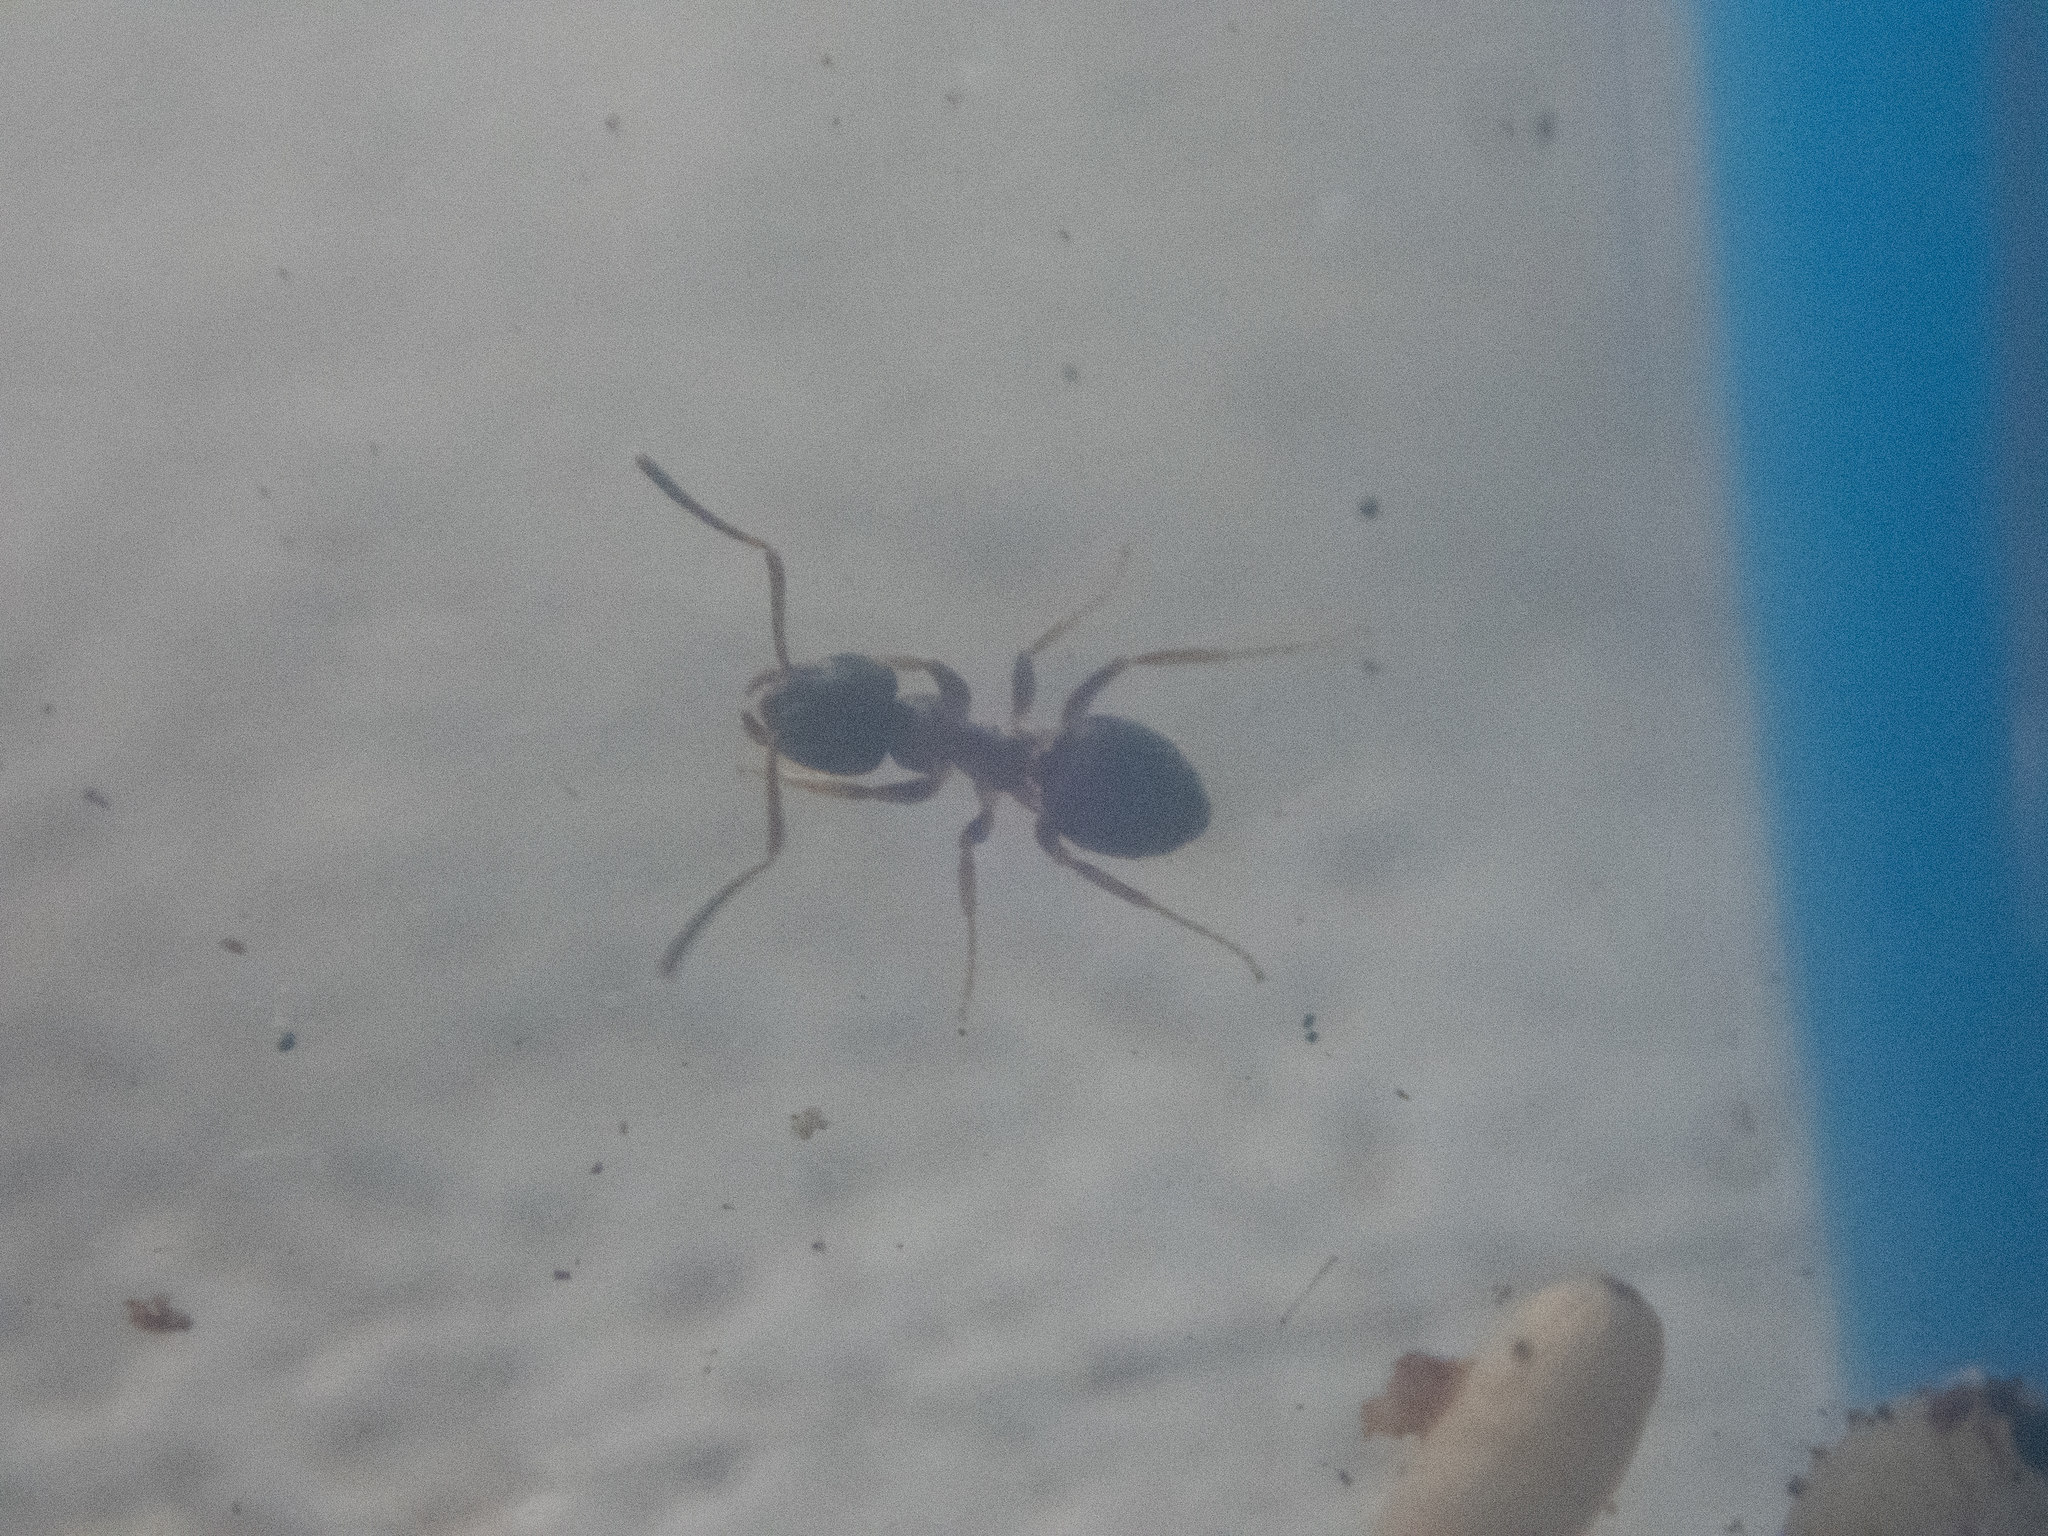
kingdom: Animalia
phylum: Arthropoda
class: Insecta
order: Hymenoptera
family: Formicidae
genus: Lasius
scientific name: Lasius americanus
